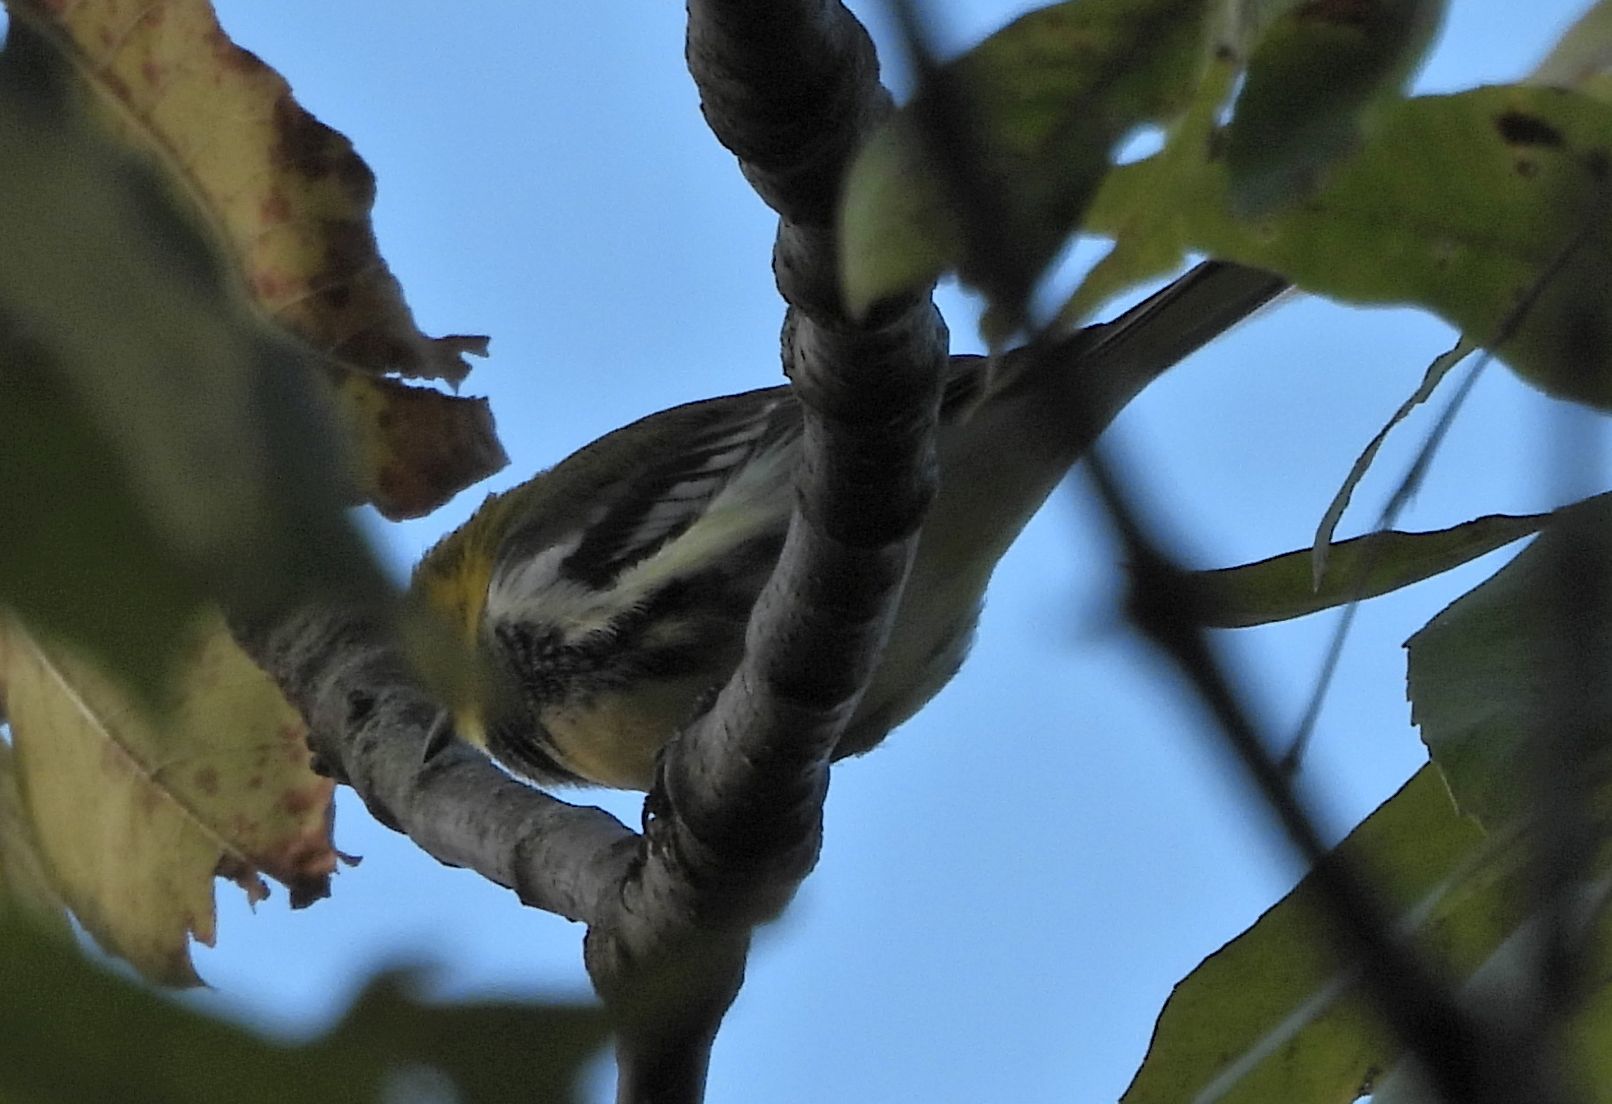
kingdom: Animalia
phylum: Chordata
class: Aves
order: Passeriformes
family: Parulidae
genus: Setophaga
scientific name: Setophaga virens
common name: Black-throated green warbler
